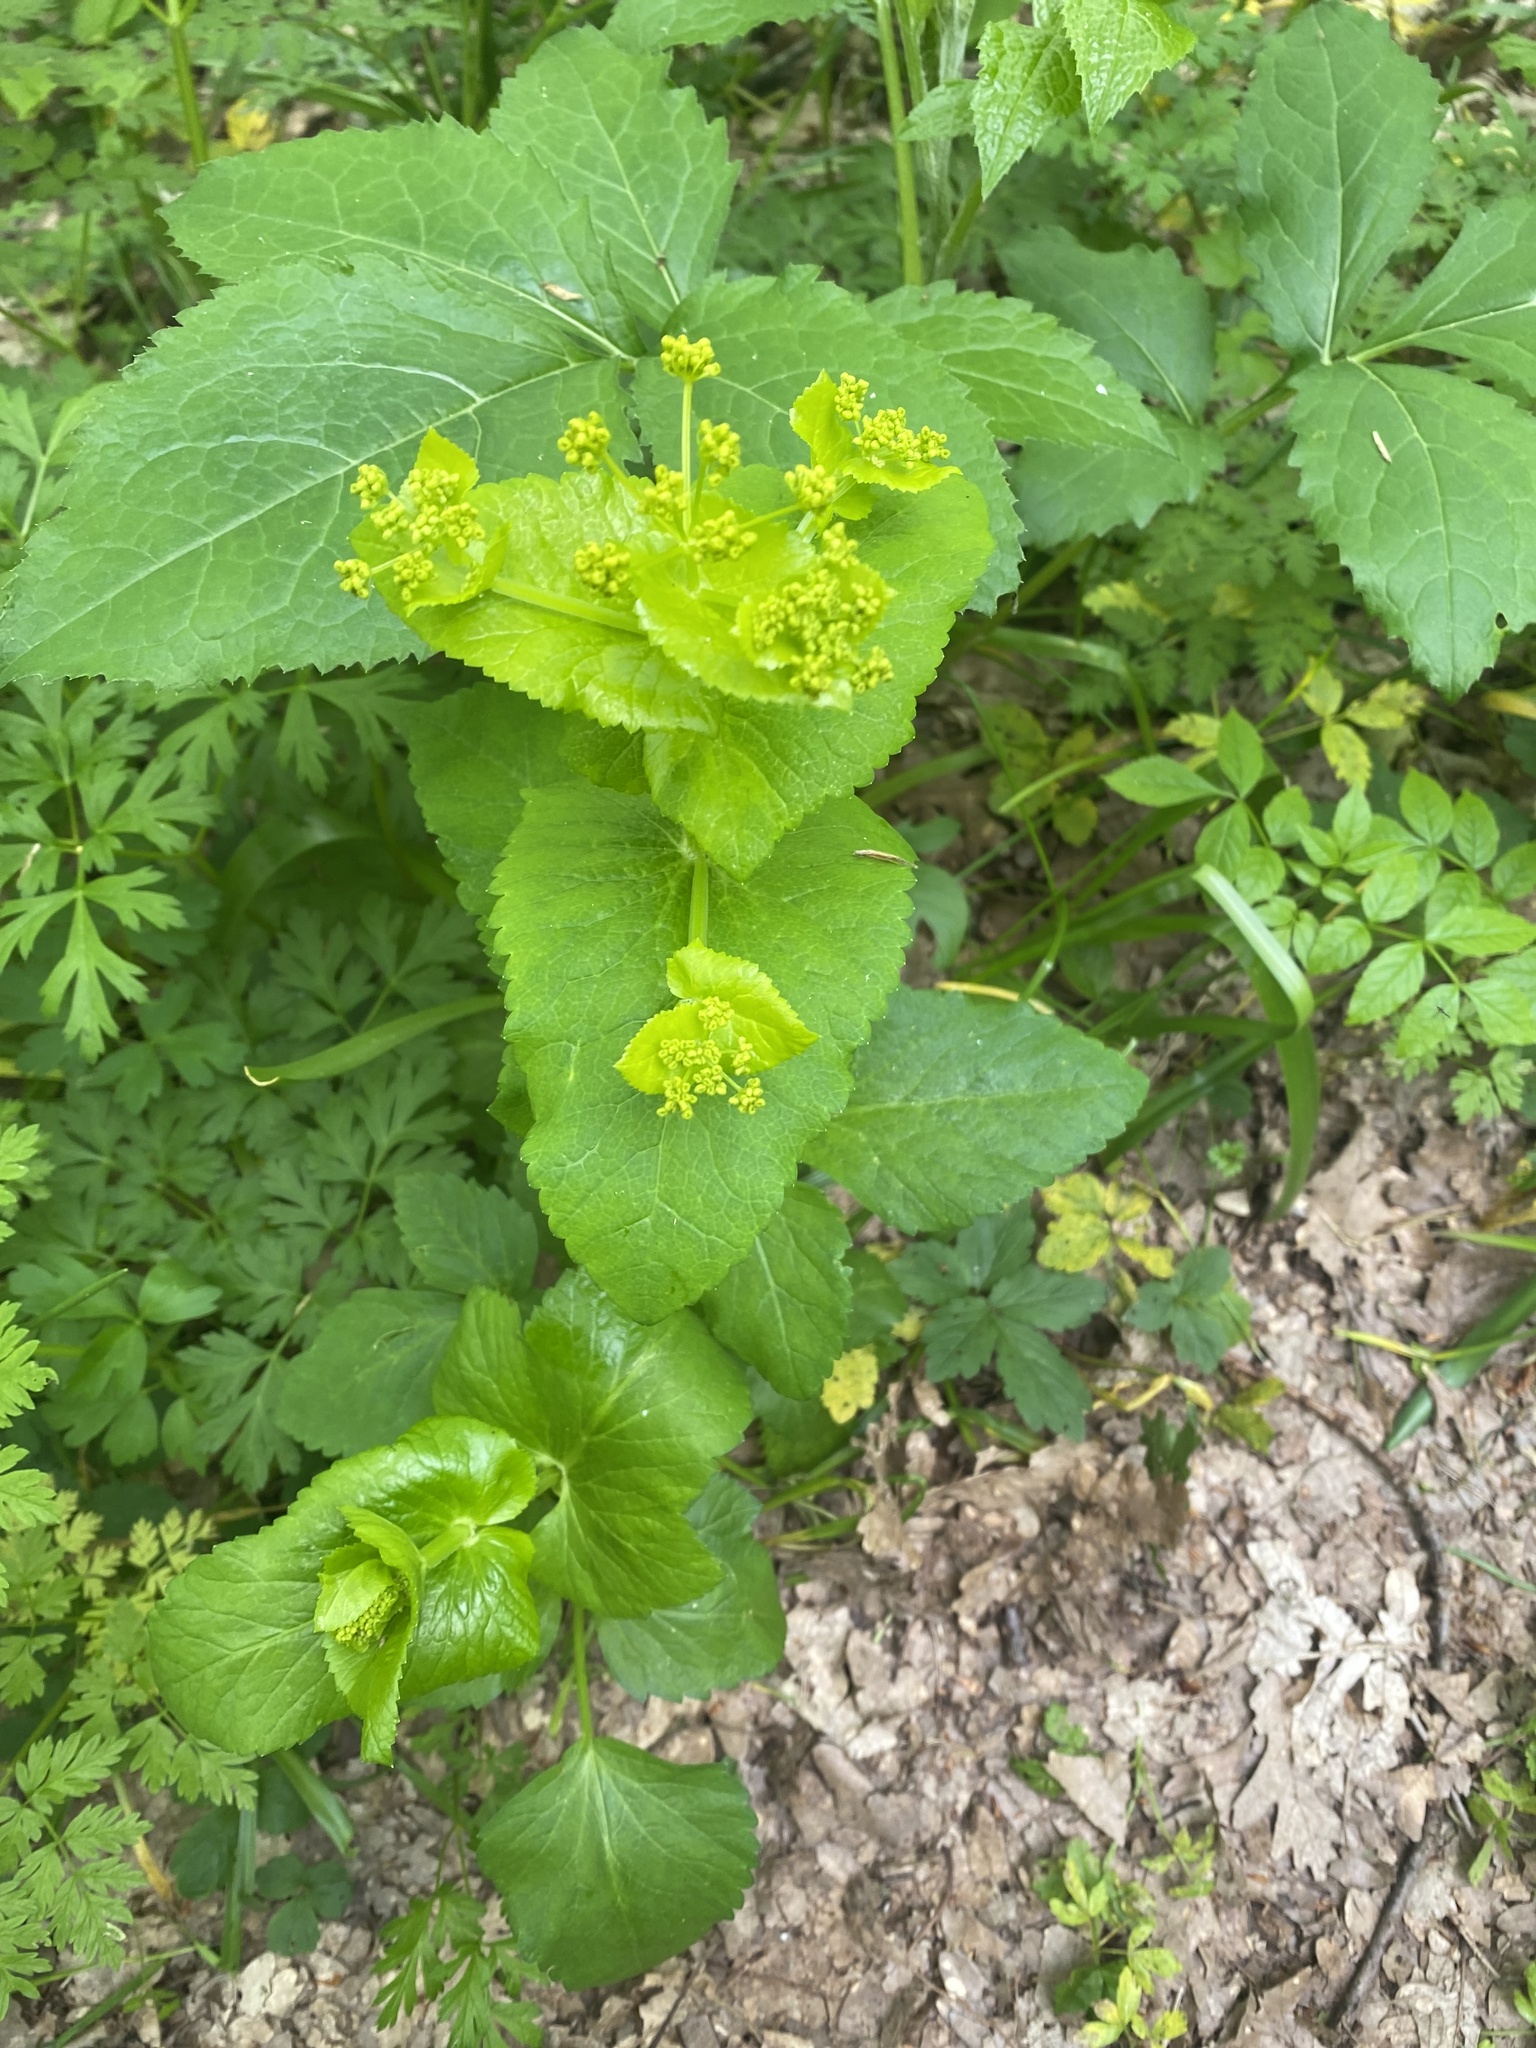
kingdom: Plantae
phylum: Tracheophyta
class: Magnoliopsida
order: Apiales
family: Apiaceae
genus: Smyrnium
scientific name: Smyrnium perfoliatum
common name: Perfoliate alexanders
